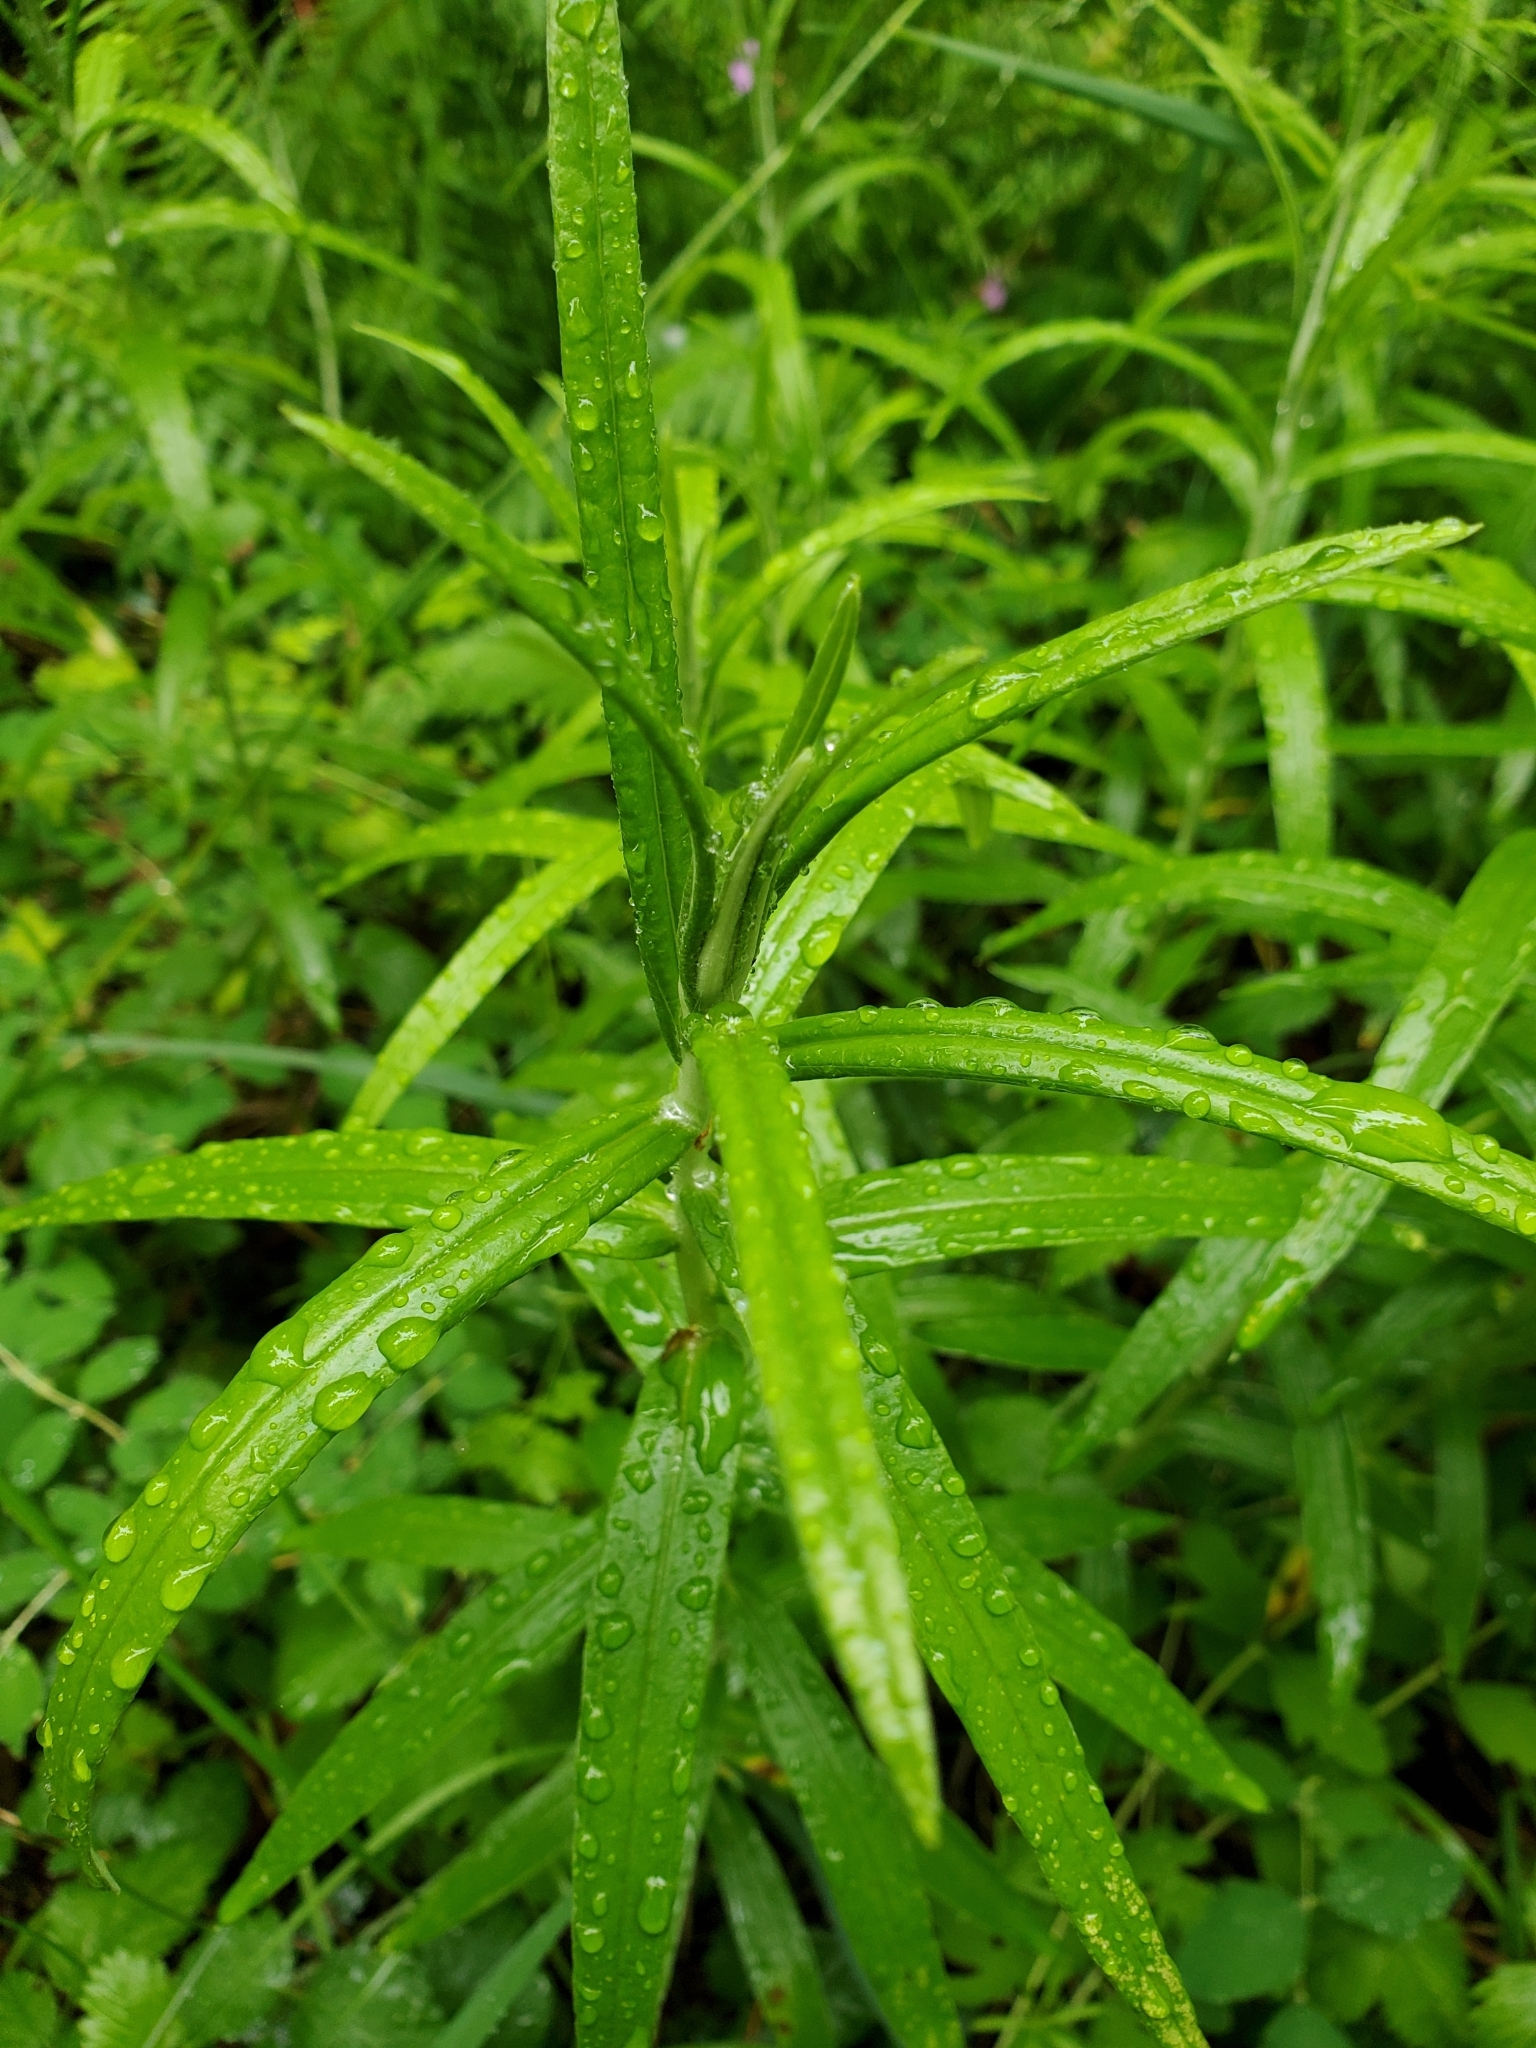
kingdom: Plantae
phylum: Tracheophyta
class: Magnoliopsida
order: Asterales
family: Asteraceae
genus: Anaphalis
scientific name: Anaphalis margaritacea
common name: Pearly everlasting
